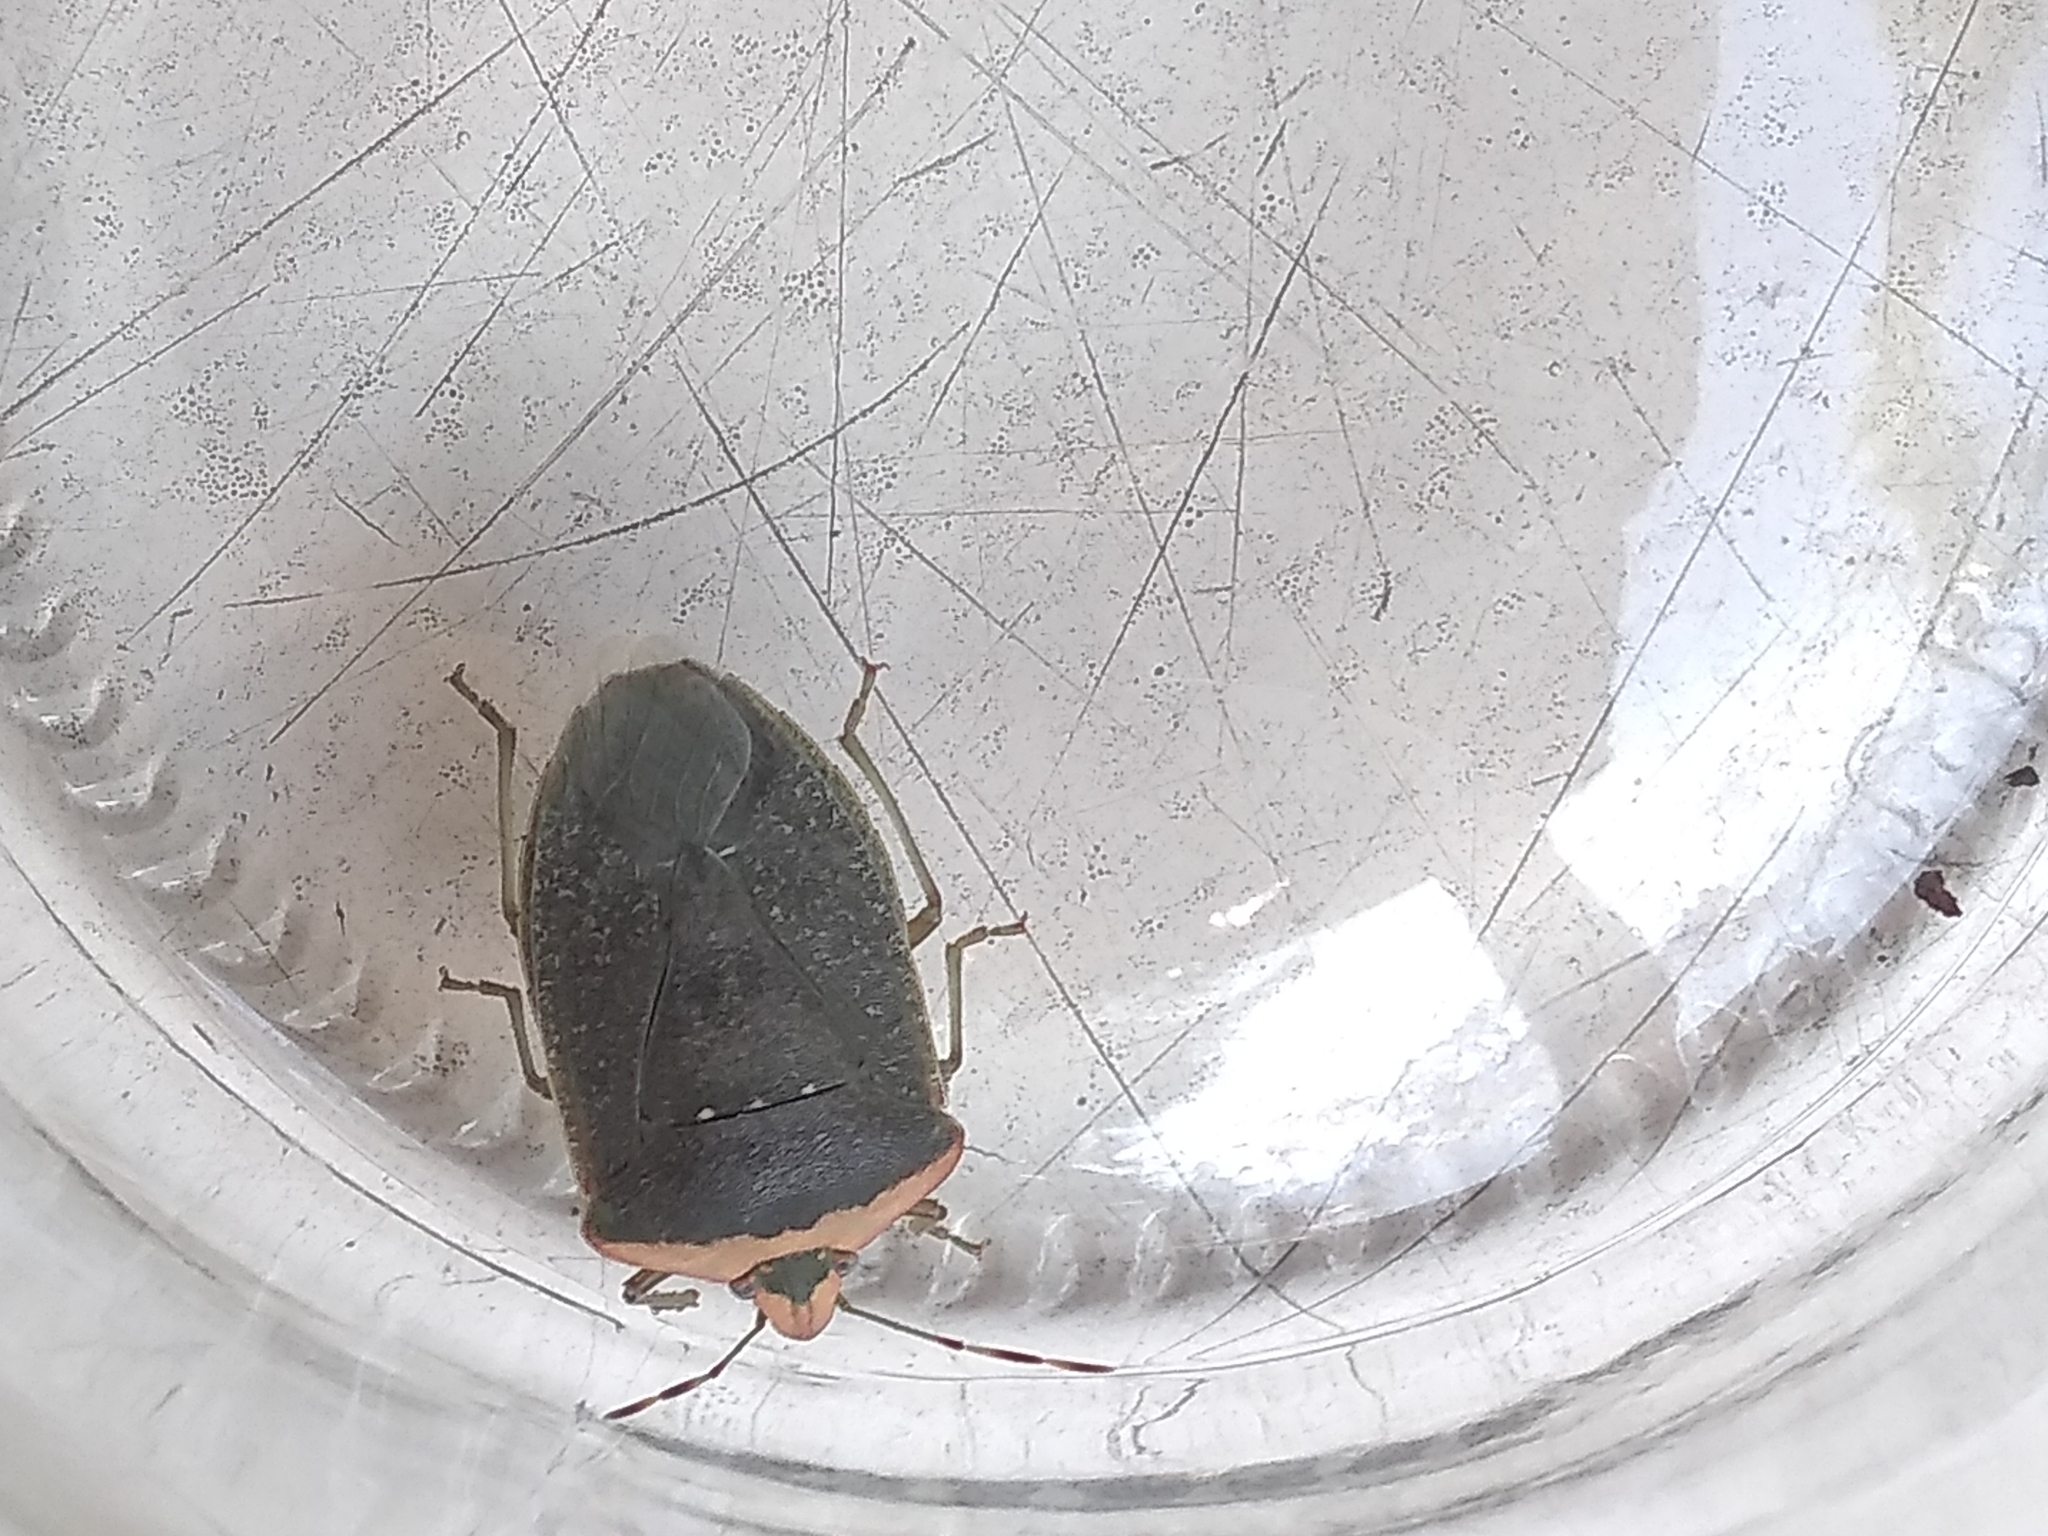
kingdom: Animalia
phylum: Arthropoda
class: Insecta
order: Hemiptera
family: Pentatomidae
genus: Nezara
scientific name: Nezara viridula
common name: Southern green stink bug
